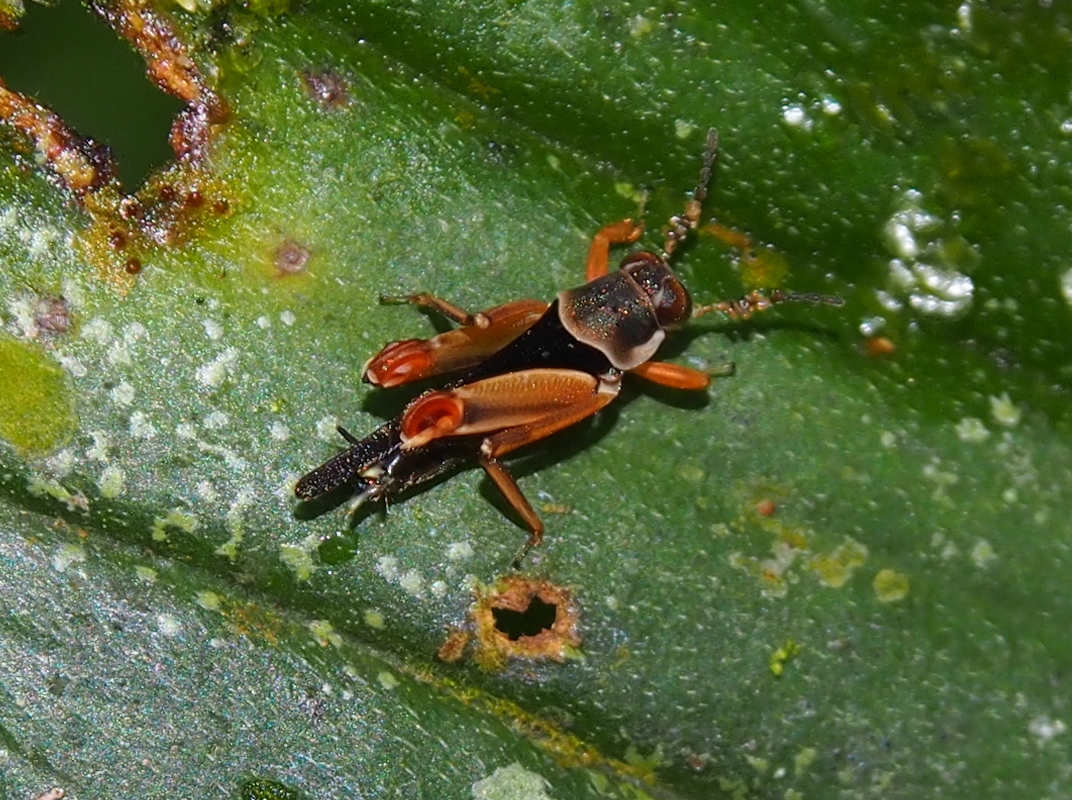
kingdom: Animalia
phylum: Arthropoda
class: Insecta
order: Orthoptera
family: Ripipterygidae
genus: Ripipteryx
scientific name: Ripipteryx insignis
